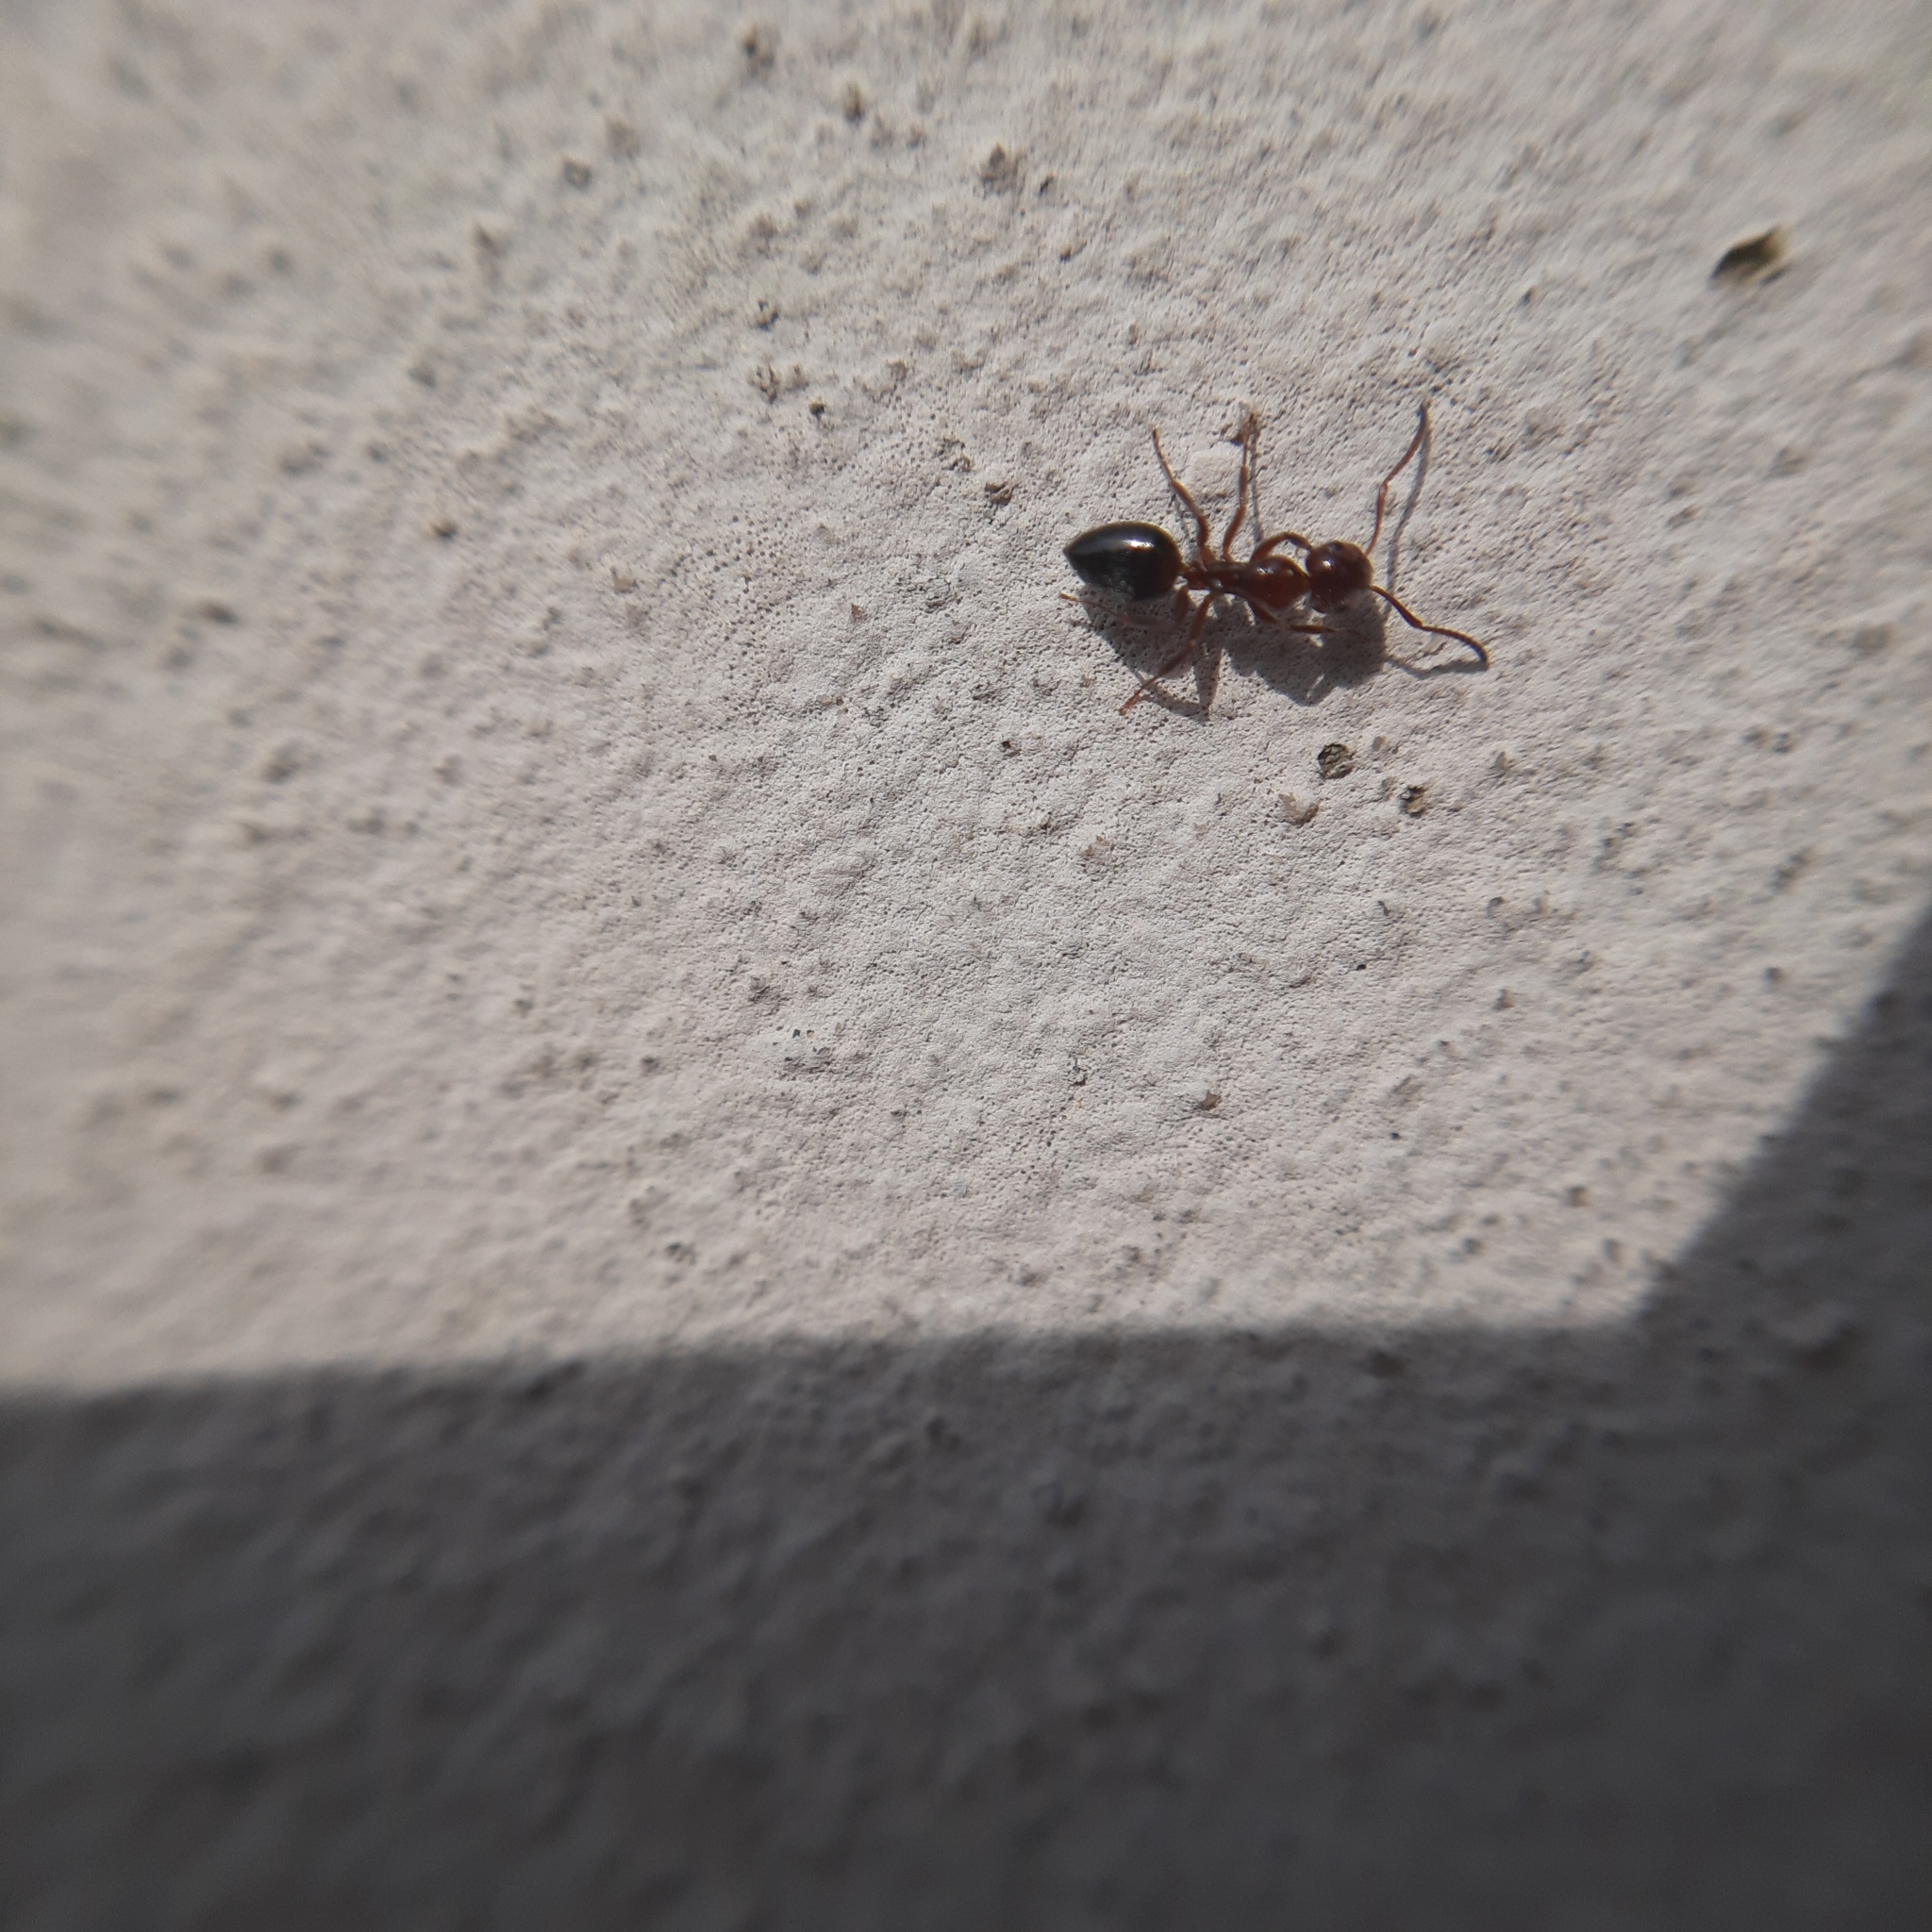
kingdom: Animalia
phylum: Arthropoda
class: Insecta
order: Hymenoptera
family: Formicidae
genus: Camponotus
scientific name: Camponotus lateralis
